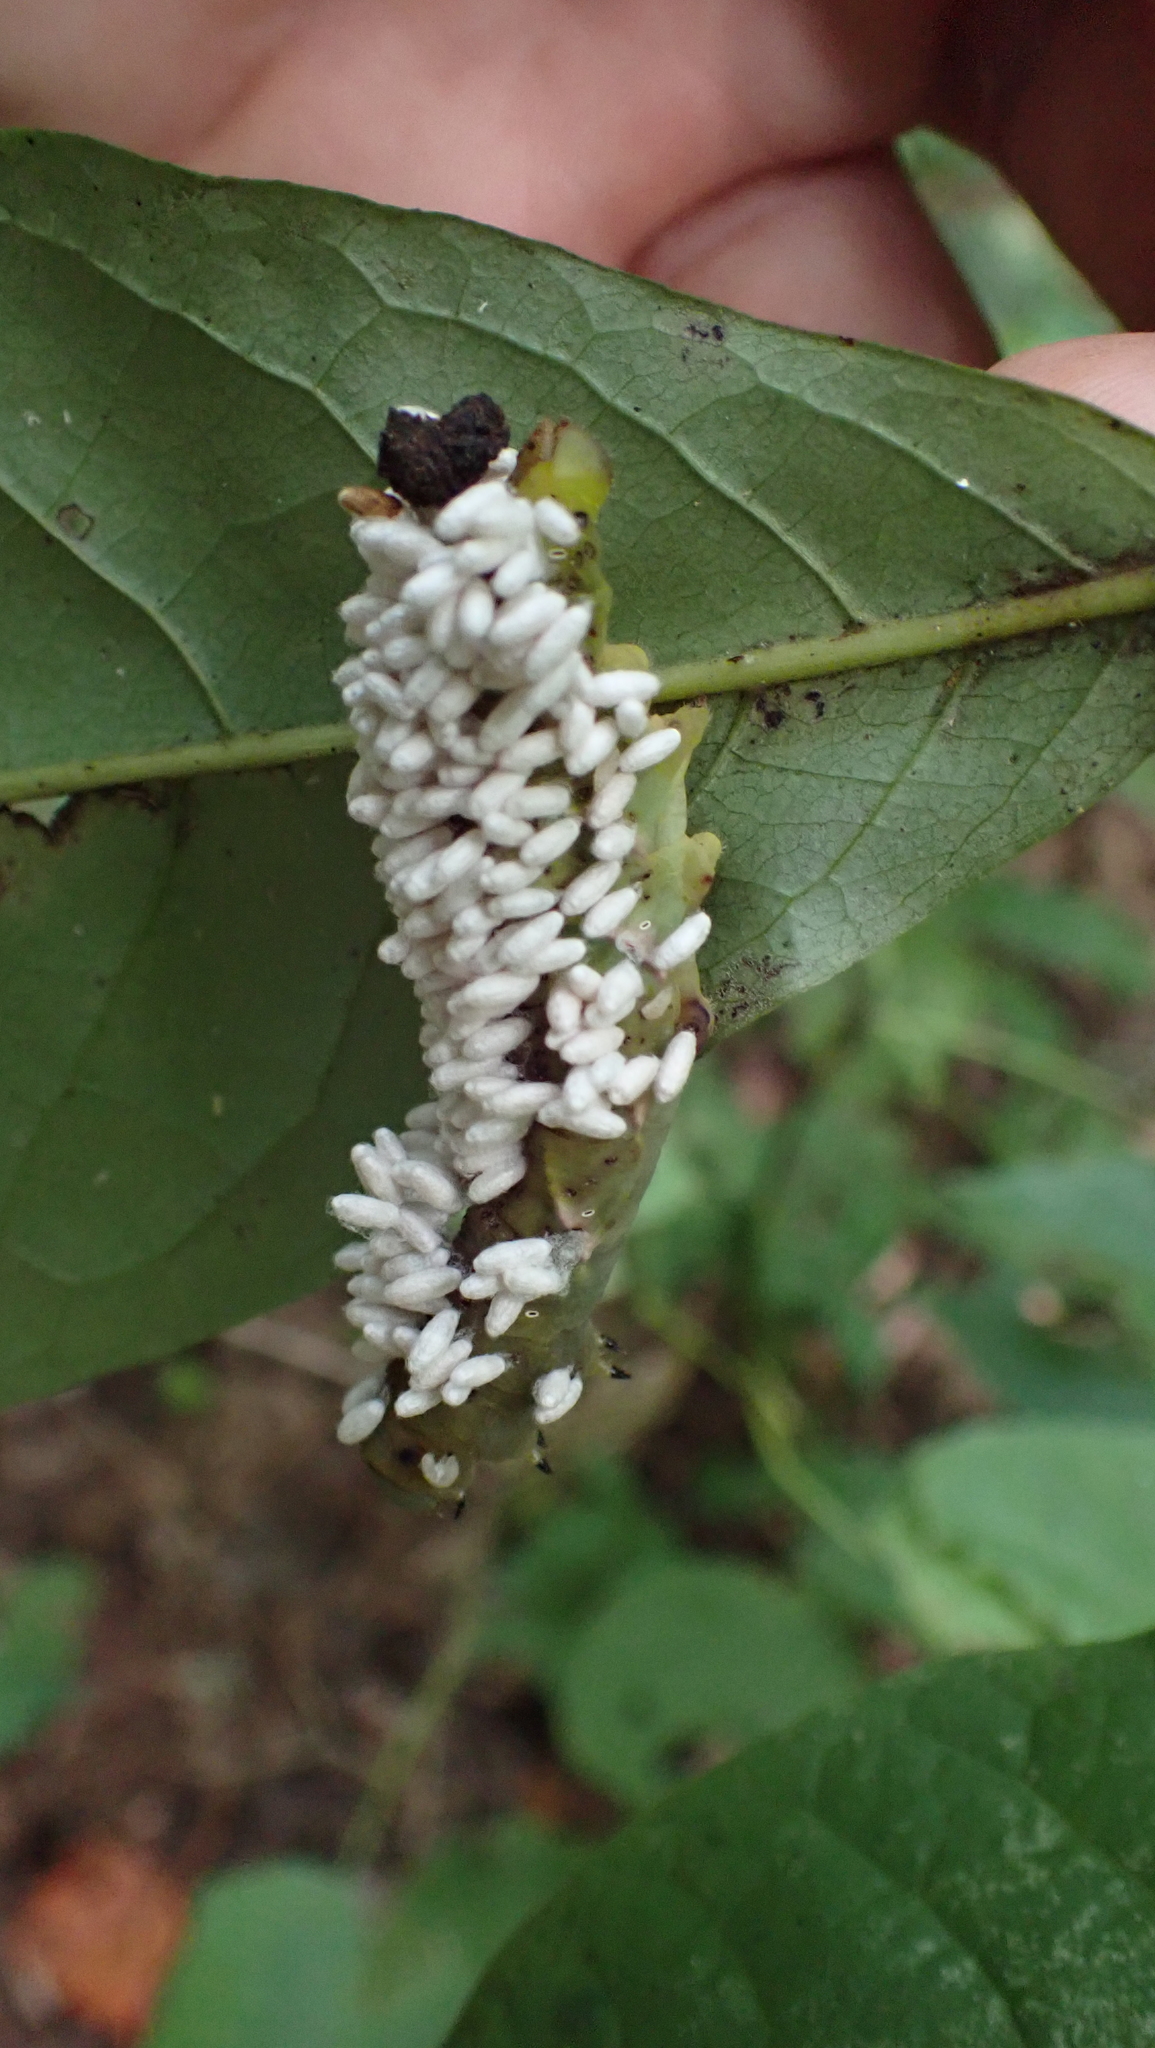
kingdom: Animalia
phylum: Arthropoda
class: Insecta
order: Hymenoptera
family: Braconidae
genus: Cotesia
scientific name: Cotesia congregata
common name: Hornworm parasitoid wasp
